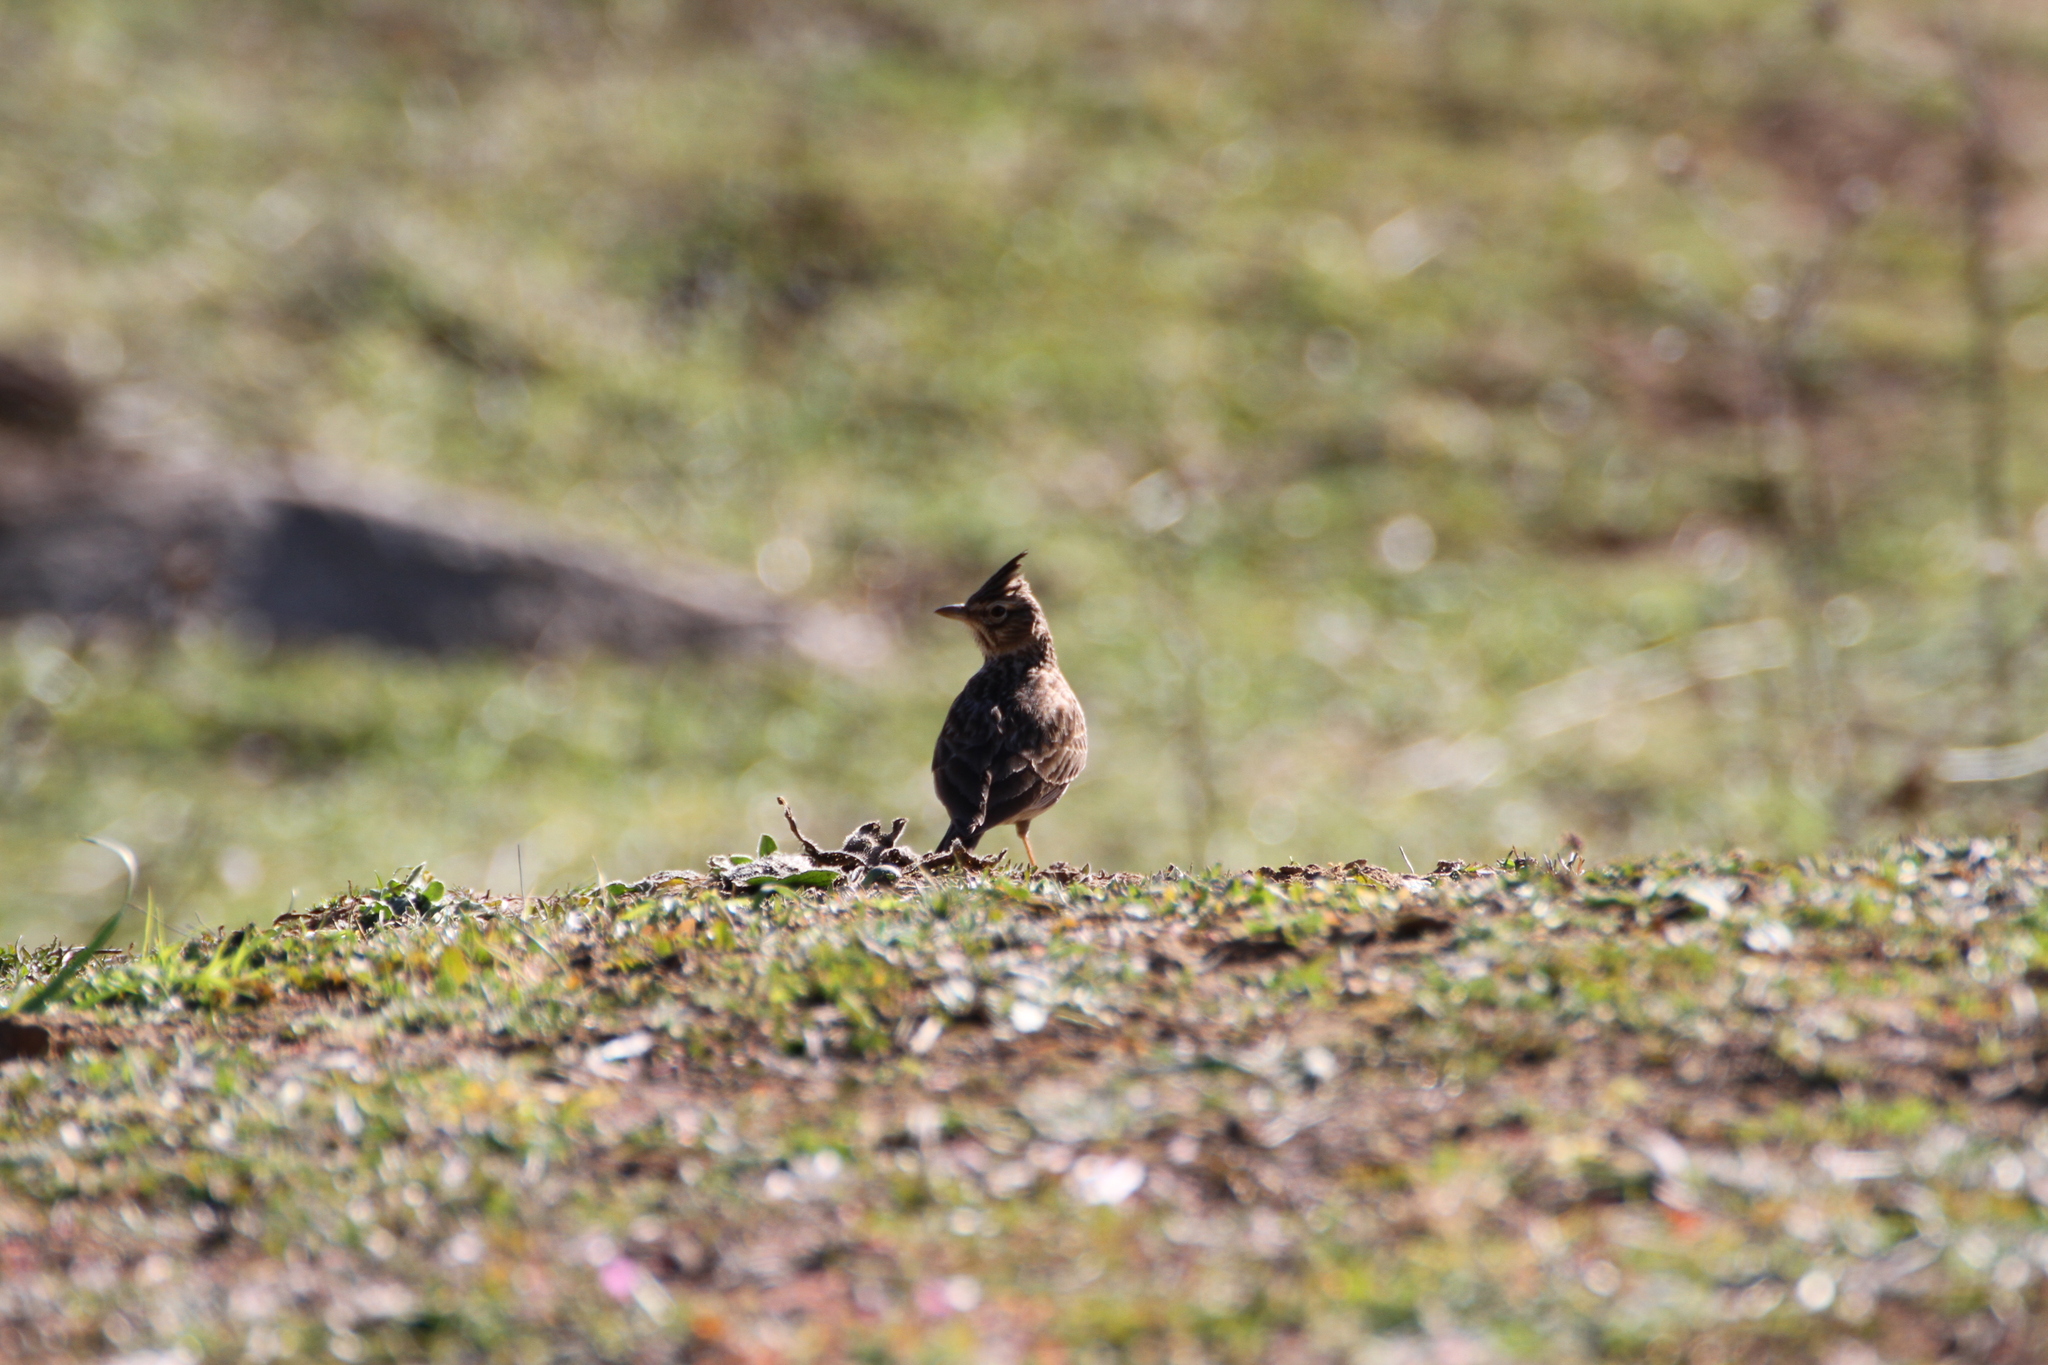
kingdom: Animalia
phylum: Chordata
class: Aves
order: Passeriformes
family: Alaudidae
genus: Galerida
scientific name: Galerida theklae
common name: Thekla lark
